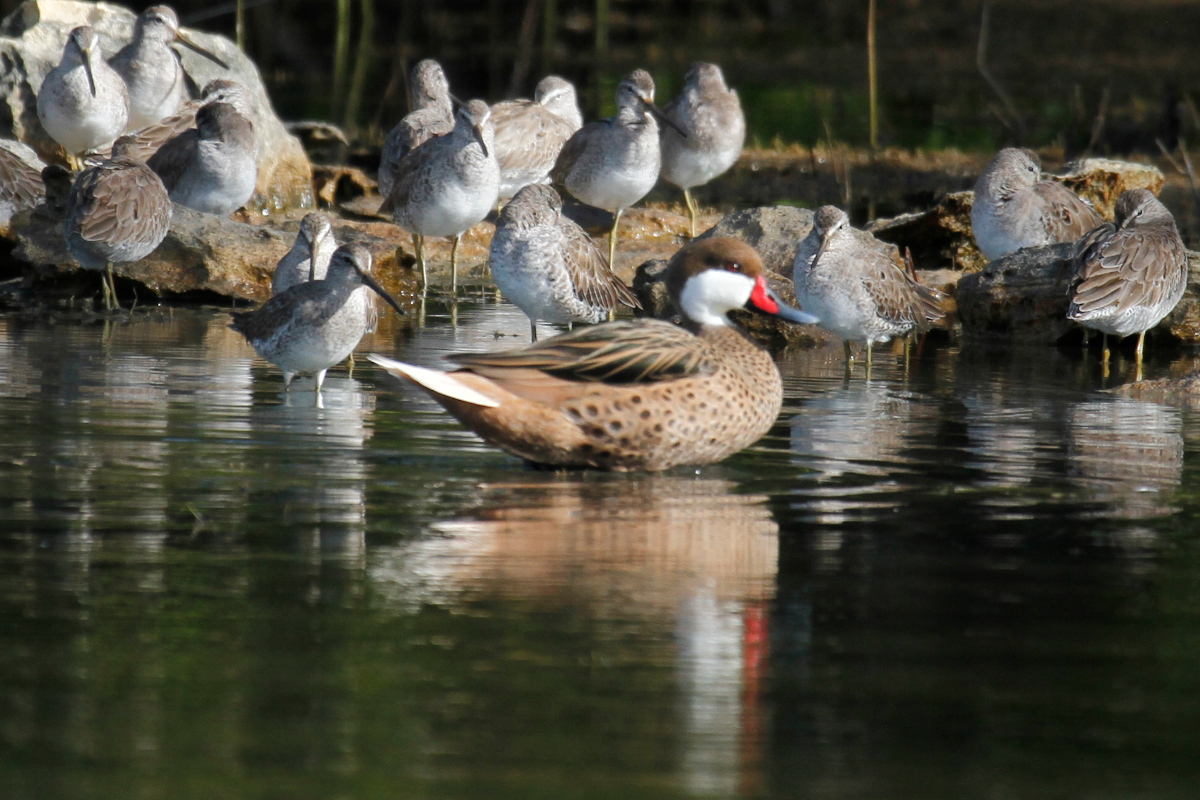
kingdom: Animalia
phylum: Chordata
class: Aves
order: Anseriformes
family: Anatidae
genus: Anas
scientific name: Anas bahamensis
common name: White-cheeked pintail
